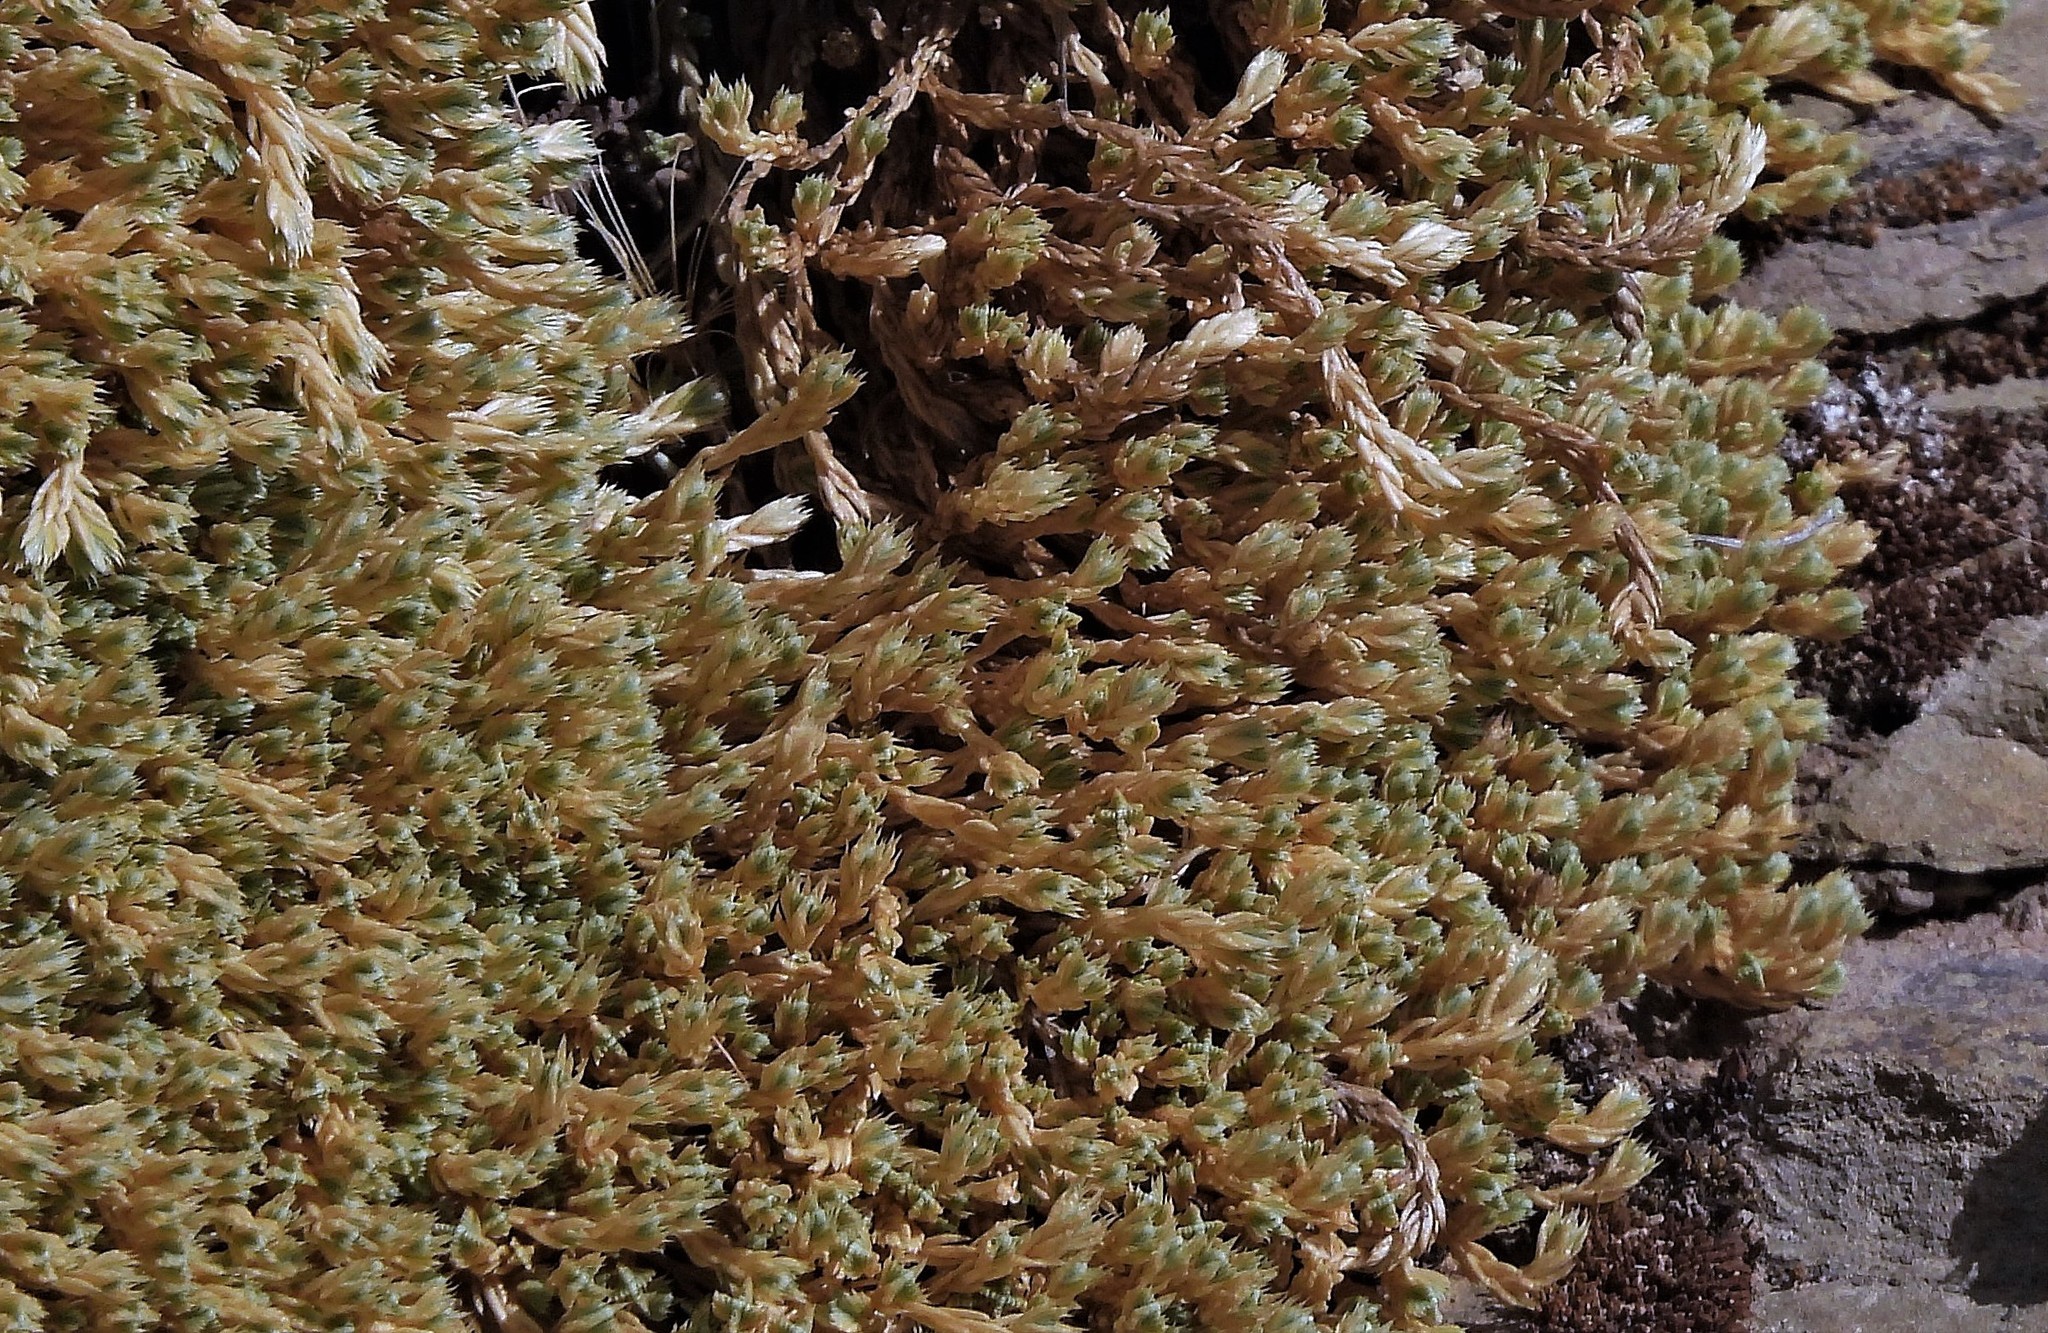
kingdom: Plantae
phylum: Tracheophyta
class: Magnoliopsida
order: Caryophyllales
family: Caryophyllaceae
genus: Pycnophyllum
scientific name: Pycnophyllum mucronulatum
